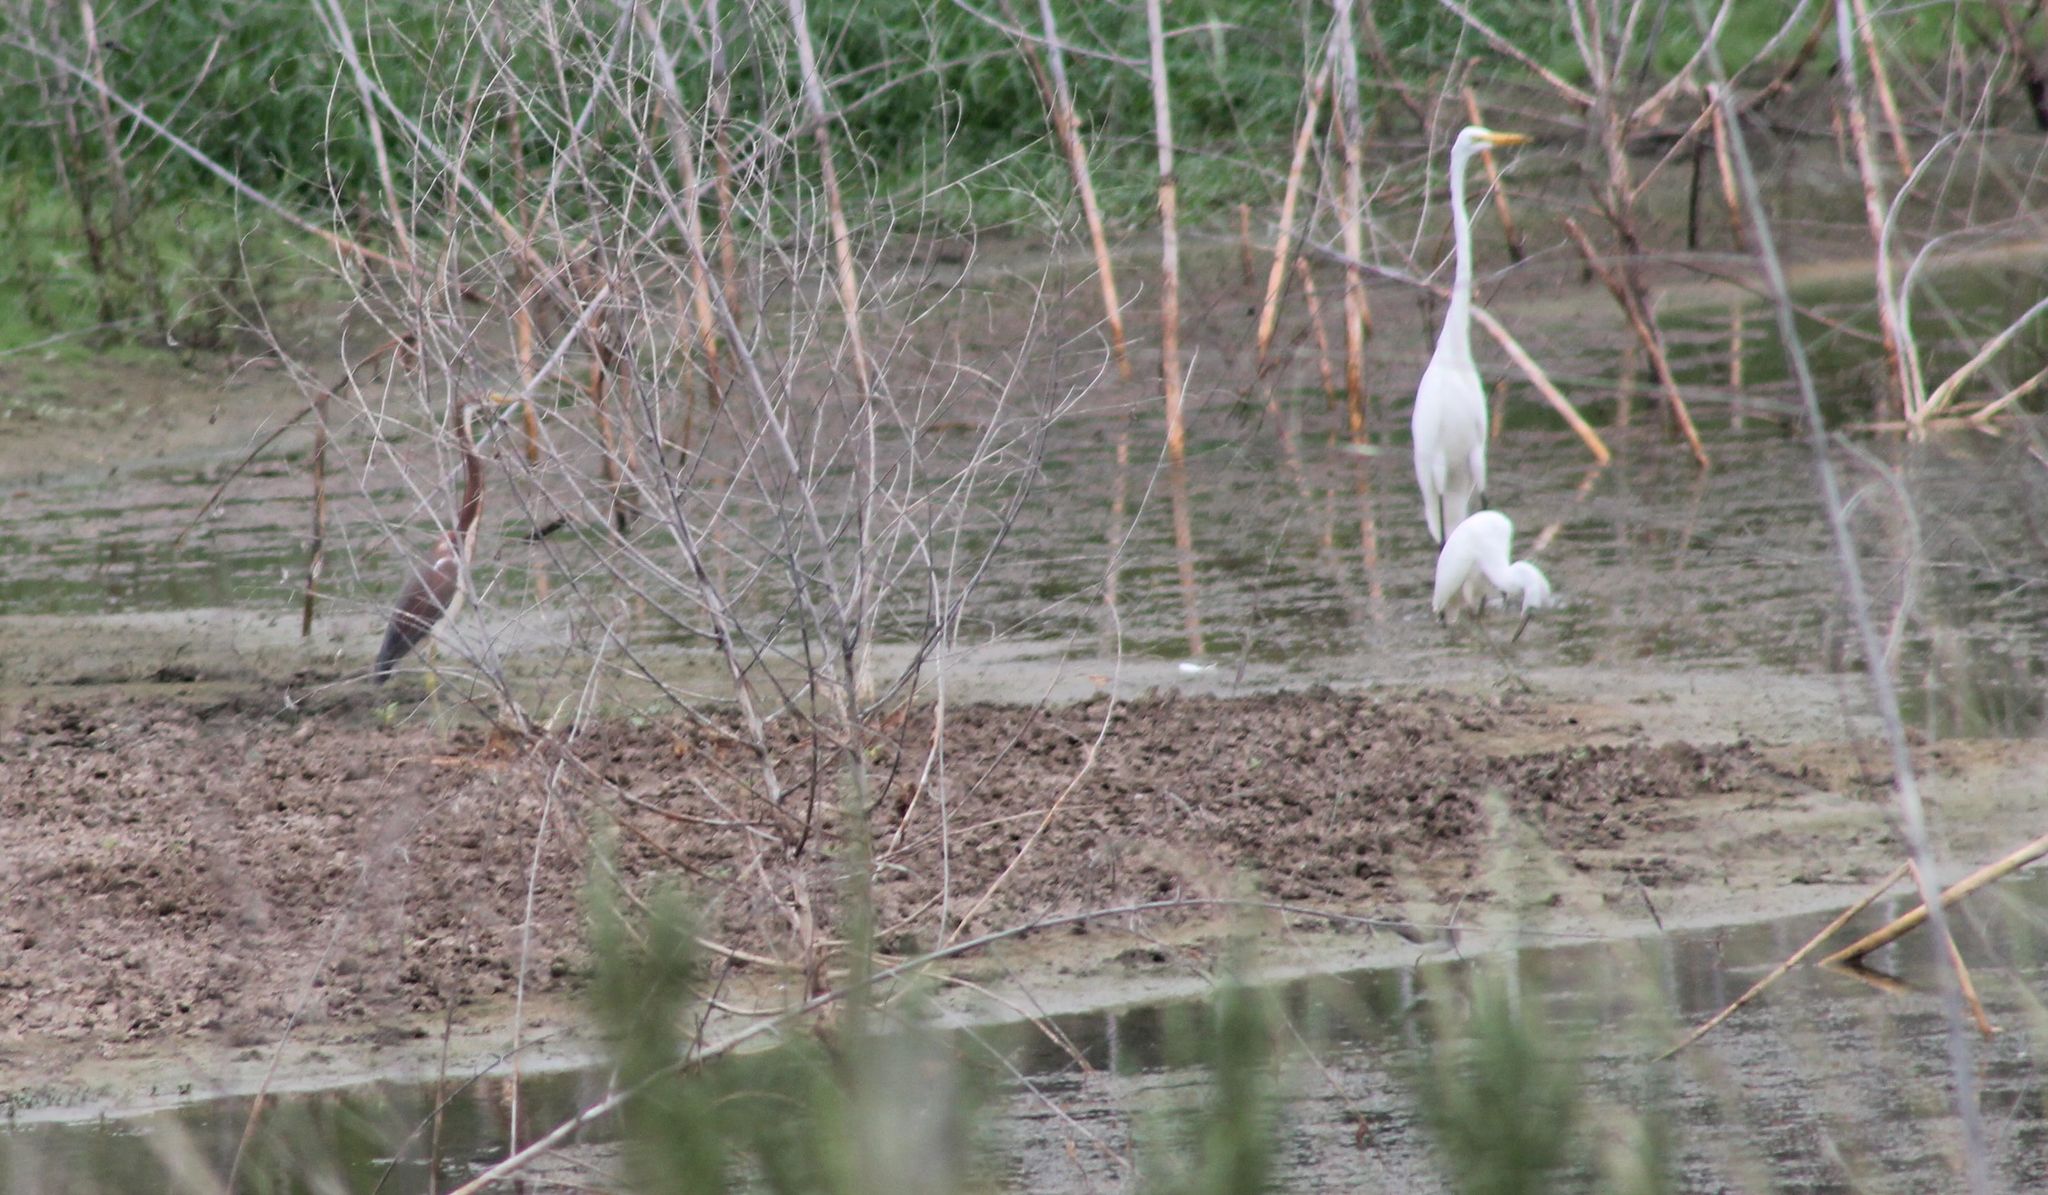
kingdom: Animalia
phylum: Chordata
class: Aves
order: Pelecaniformes
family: Ardeidae
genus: Ardea
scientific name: Ardea alba
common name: Great egret
